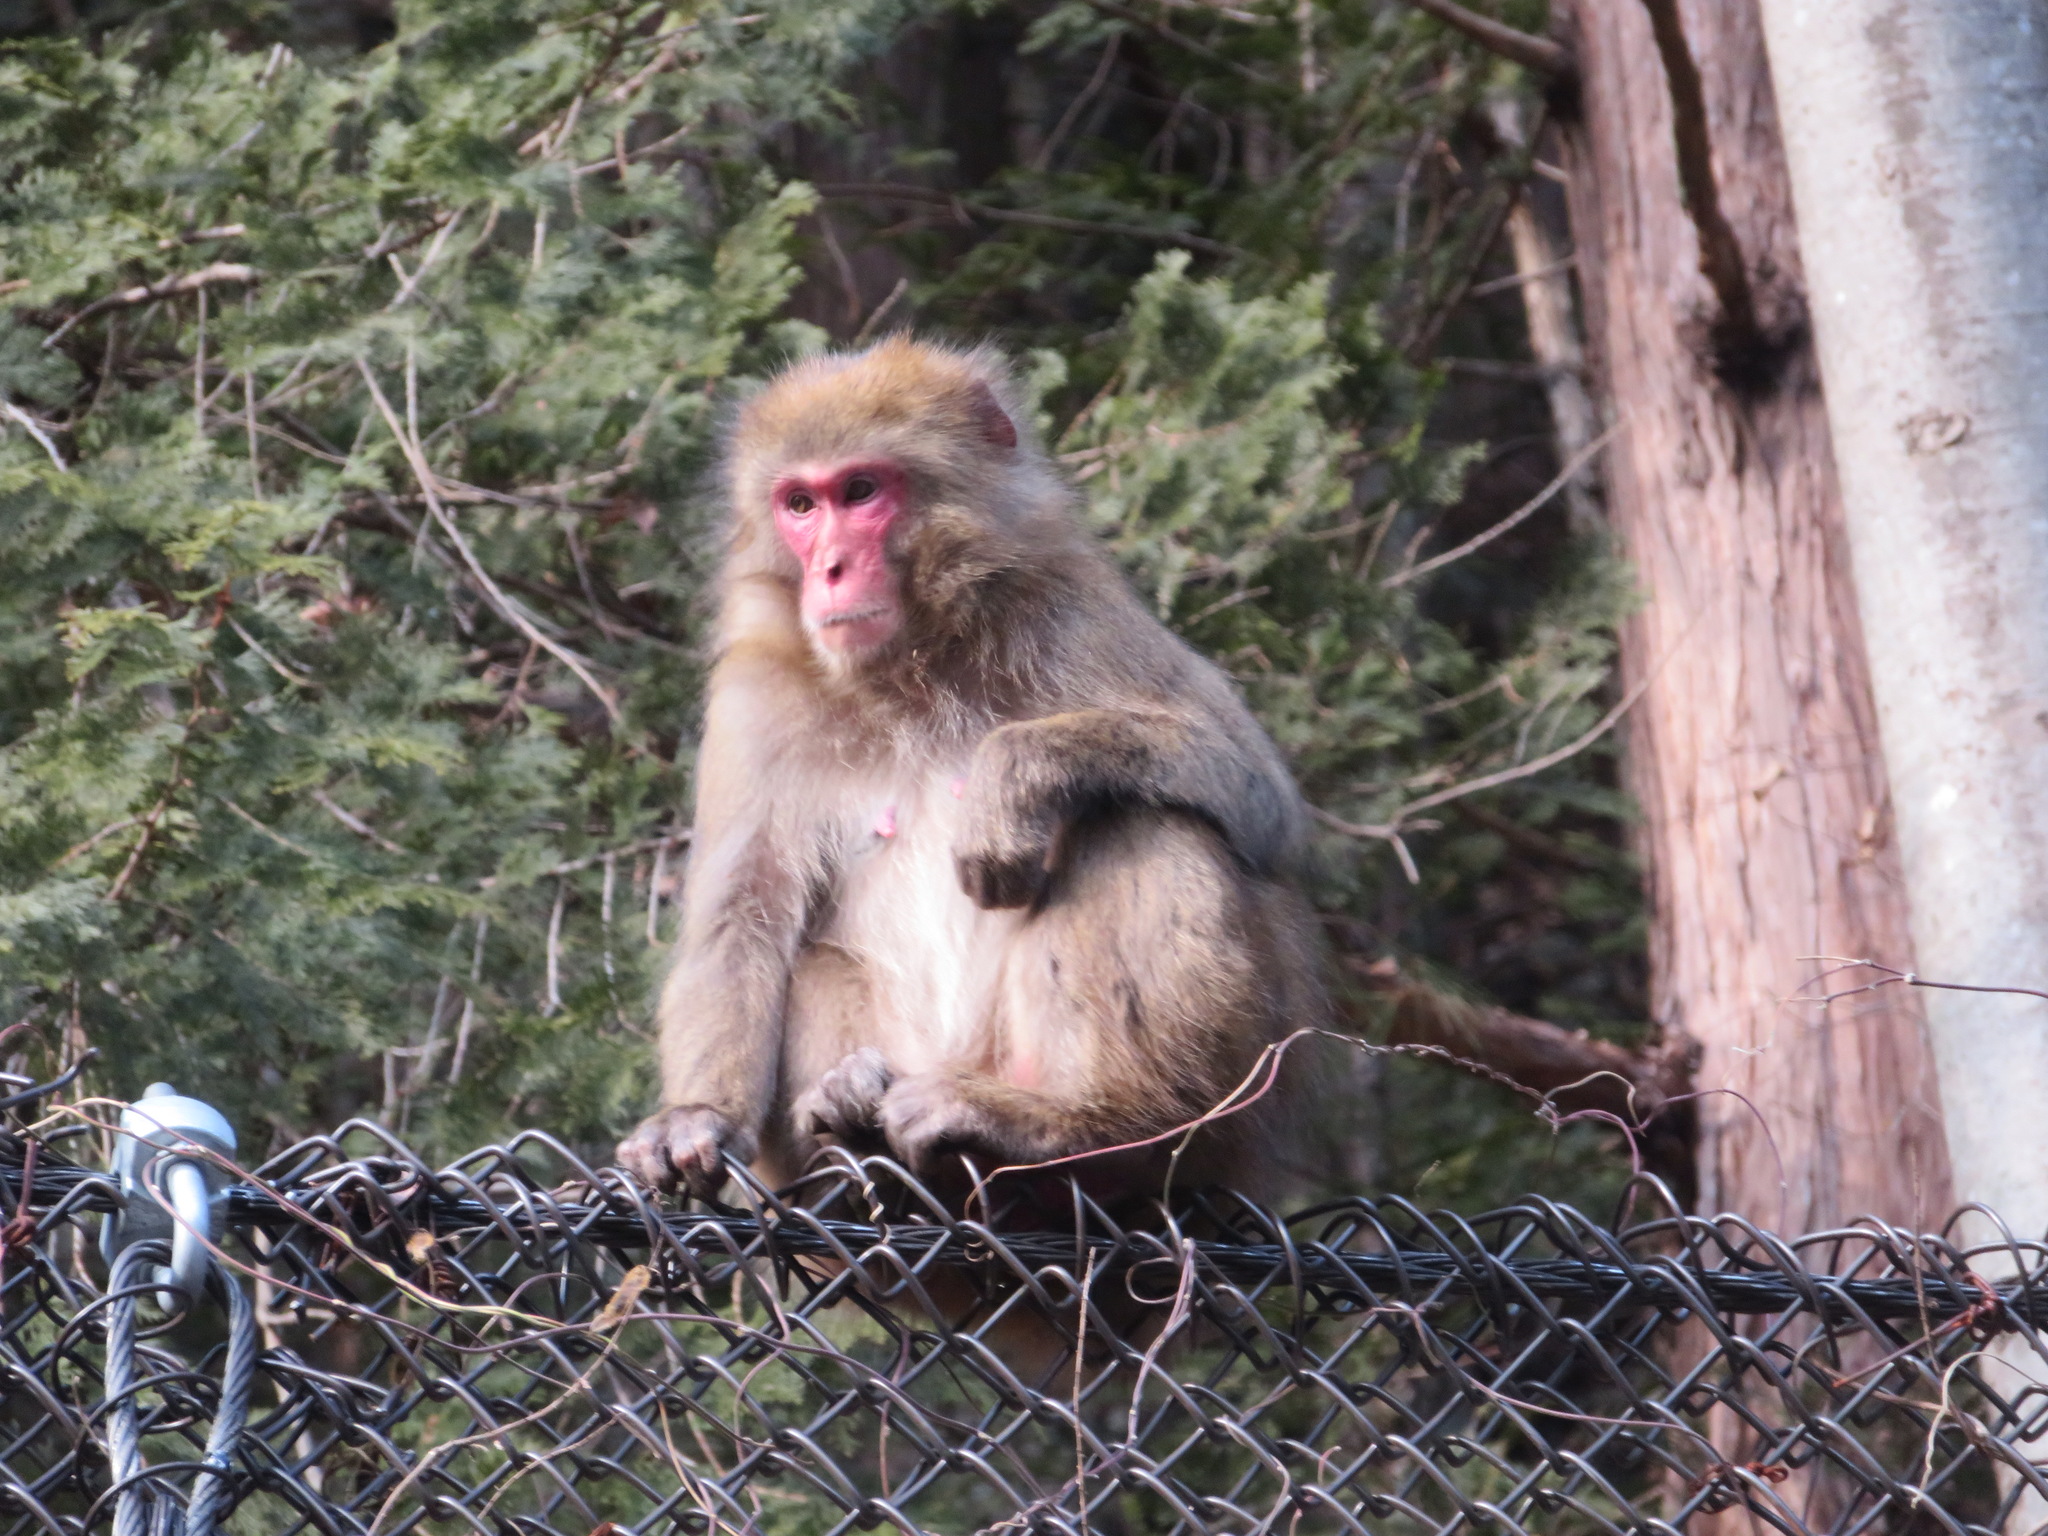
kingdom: Animalia
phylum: Chordata
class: Mammalia
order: Primates
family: Cercopithecidae
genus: Macaca
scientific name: Macaca fuscata
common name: Japanese macaque
